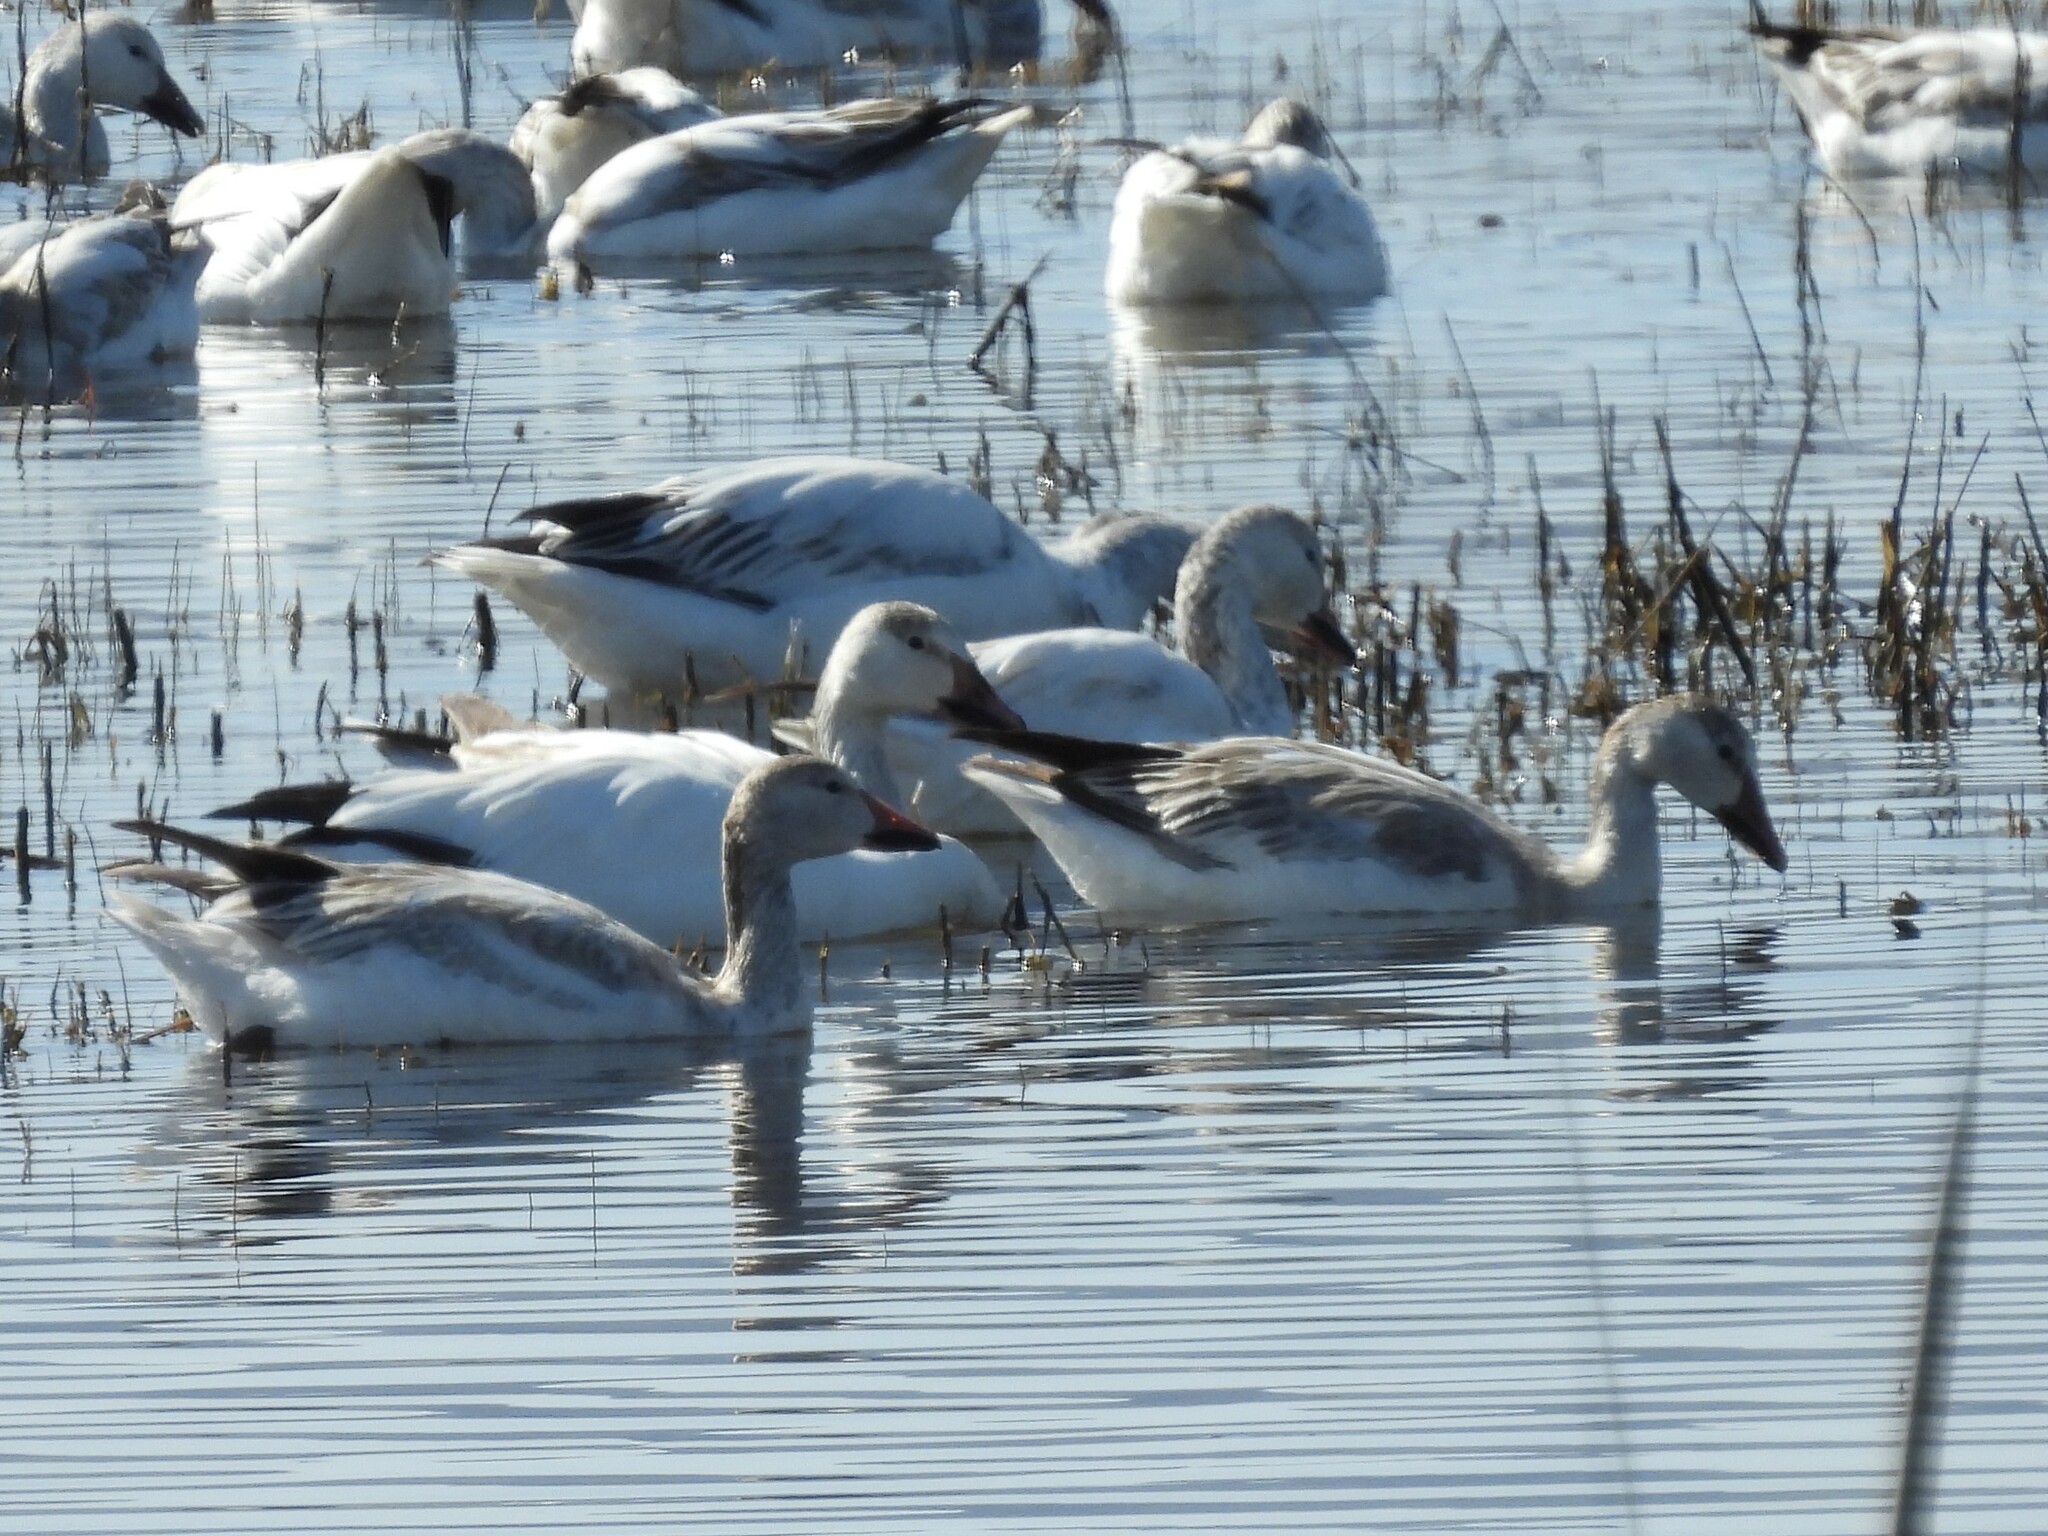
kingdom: Animalia
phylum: Chordata
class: Aves
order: Anseriformes
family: Anatidae
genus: Anser
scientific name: Anser caerulescens
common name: Snow goose
